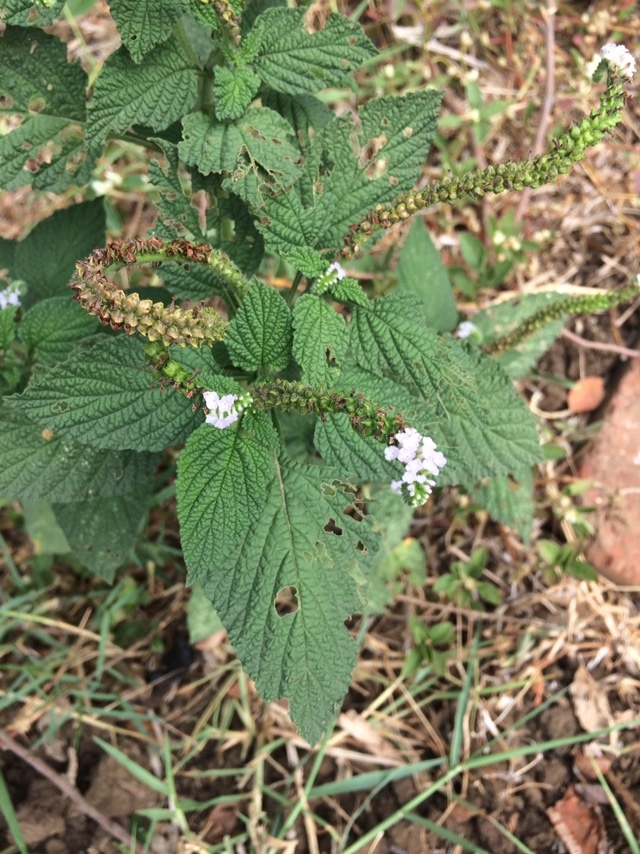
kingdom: Plantae
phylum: Tracheophyta
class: Magnoliopsida
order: Boraginales
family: Heliotropiaceae
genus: Heliotropium
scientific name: Heliotropium indicum
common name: Indian heliotrope
